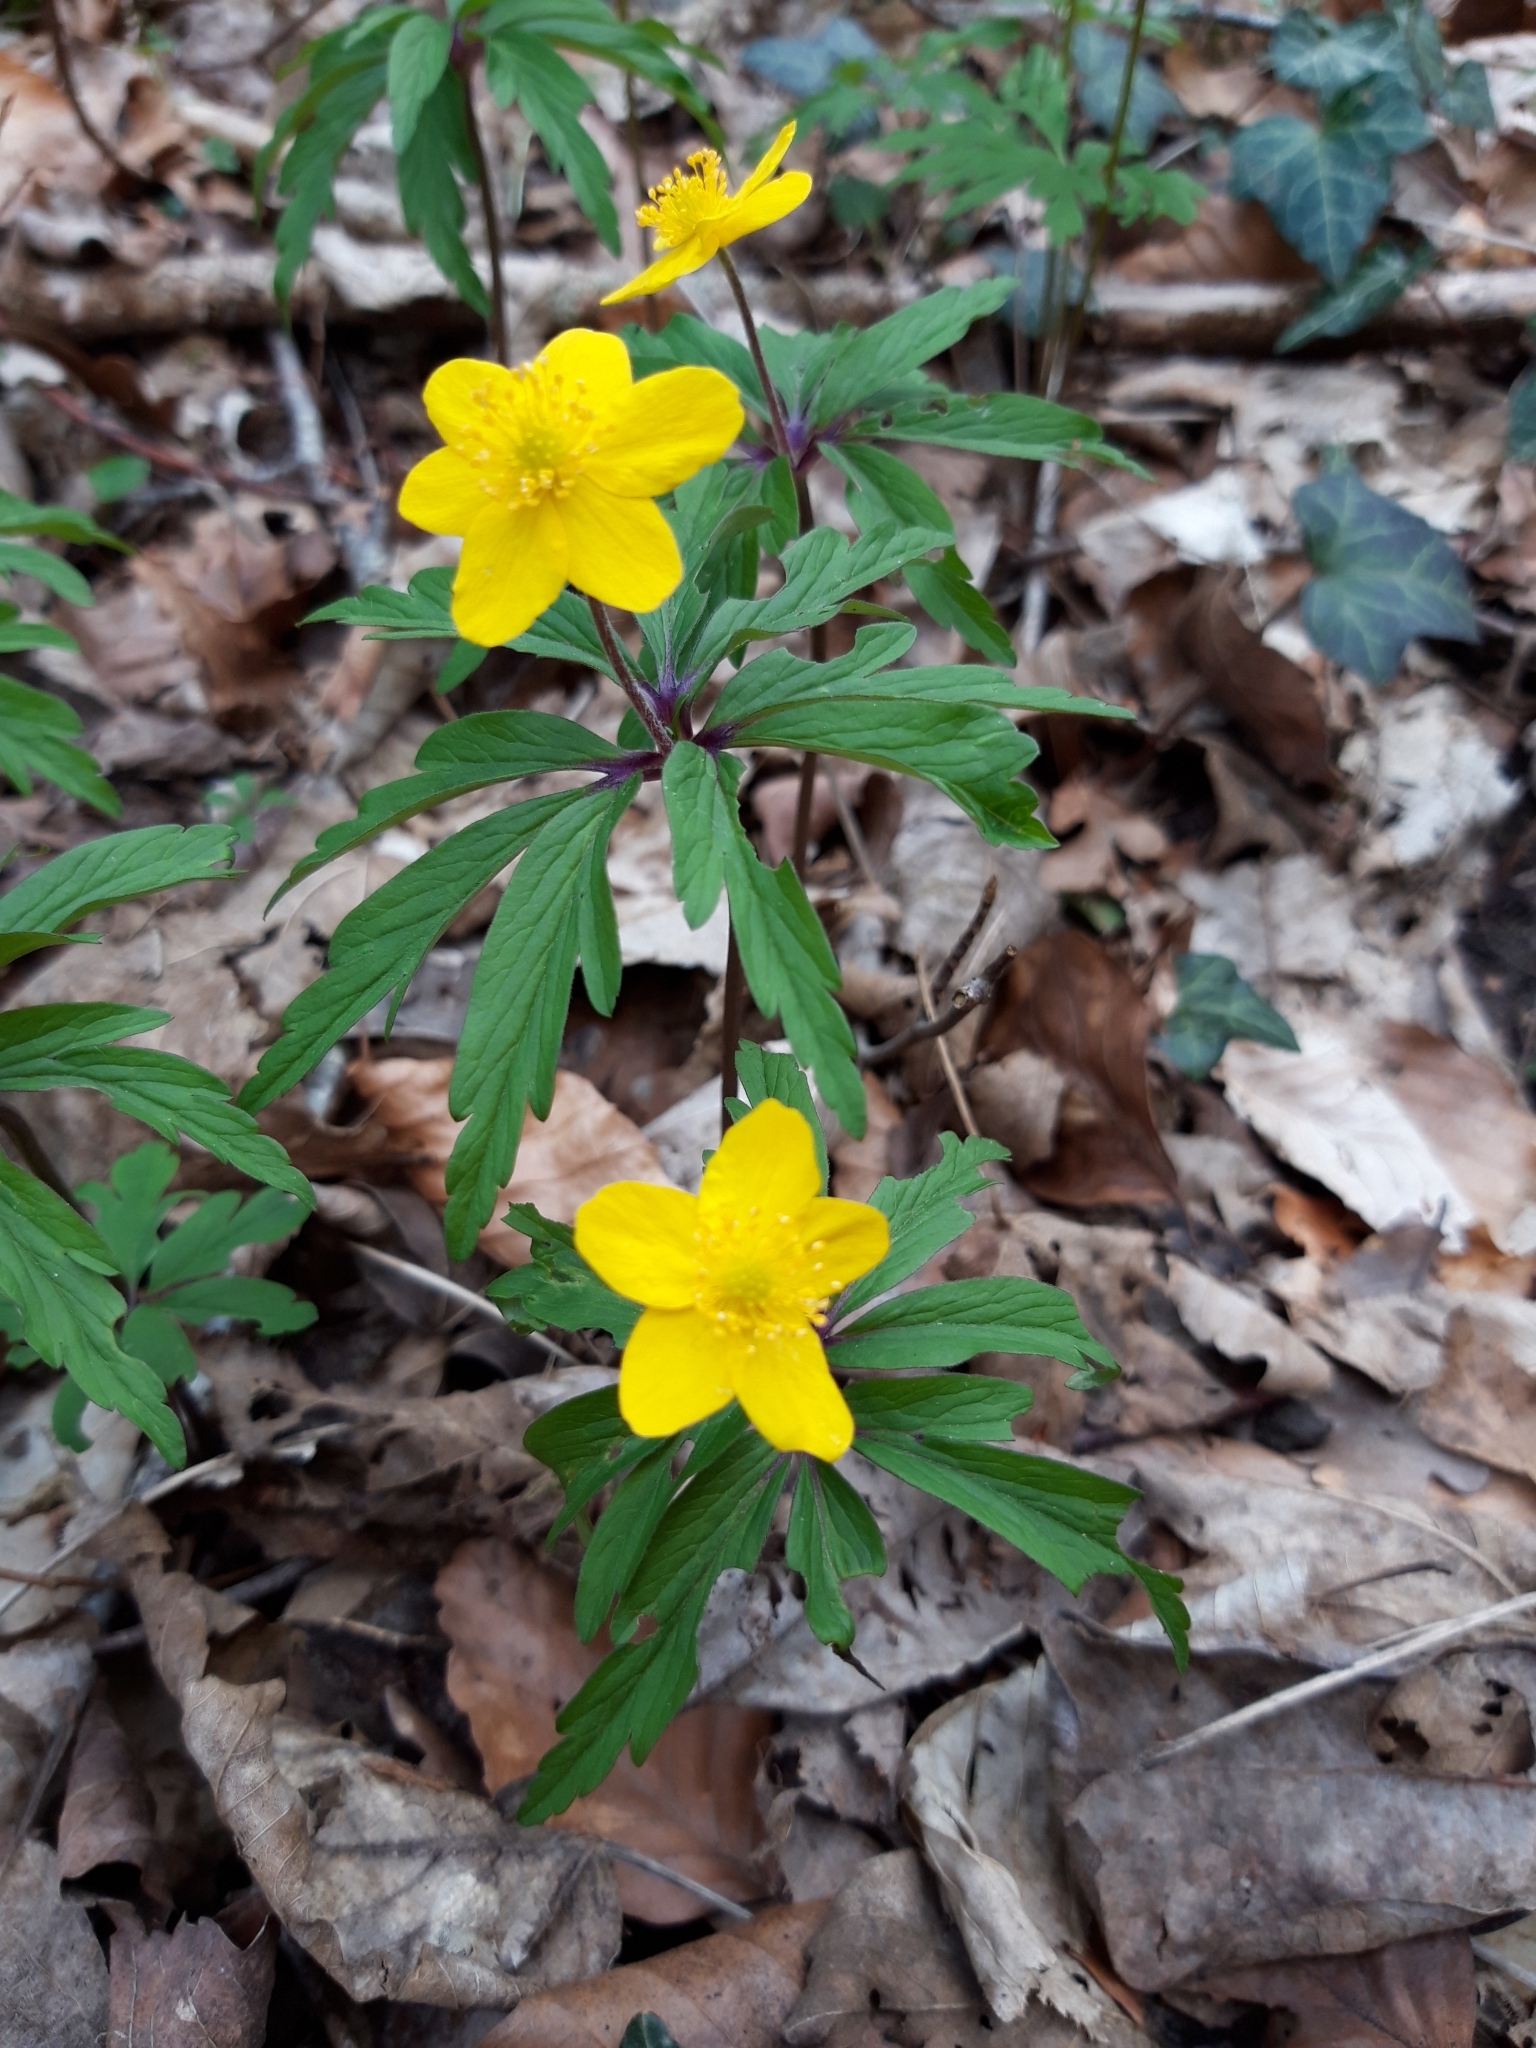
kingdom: Plantae
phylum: Tracheophyta
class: Magnoliopsida
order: Ranunculales
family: Ranunculaceae
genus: Anemone
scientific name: Anemone ranunculoides
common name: Yellow anemone
